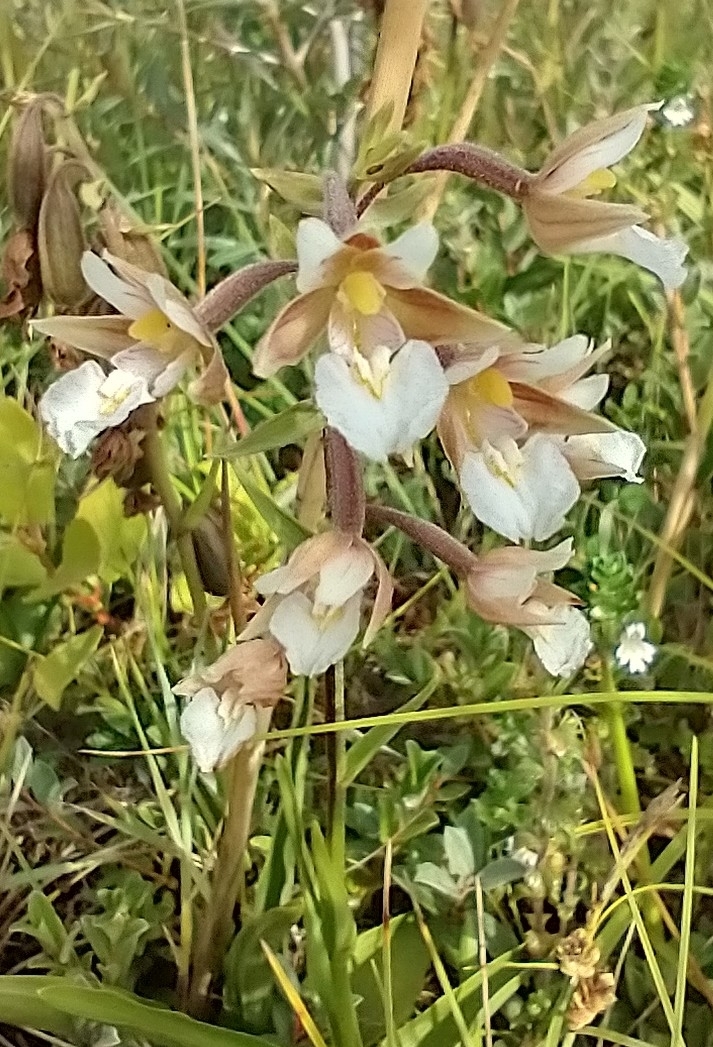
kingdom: Plantae
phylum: Tracheophyta
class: Liliopsida
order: Asparagales
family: Orchidaceae
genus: Epipactis
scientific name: Epipactis palustris
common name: Marsh helleborine
